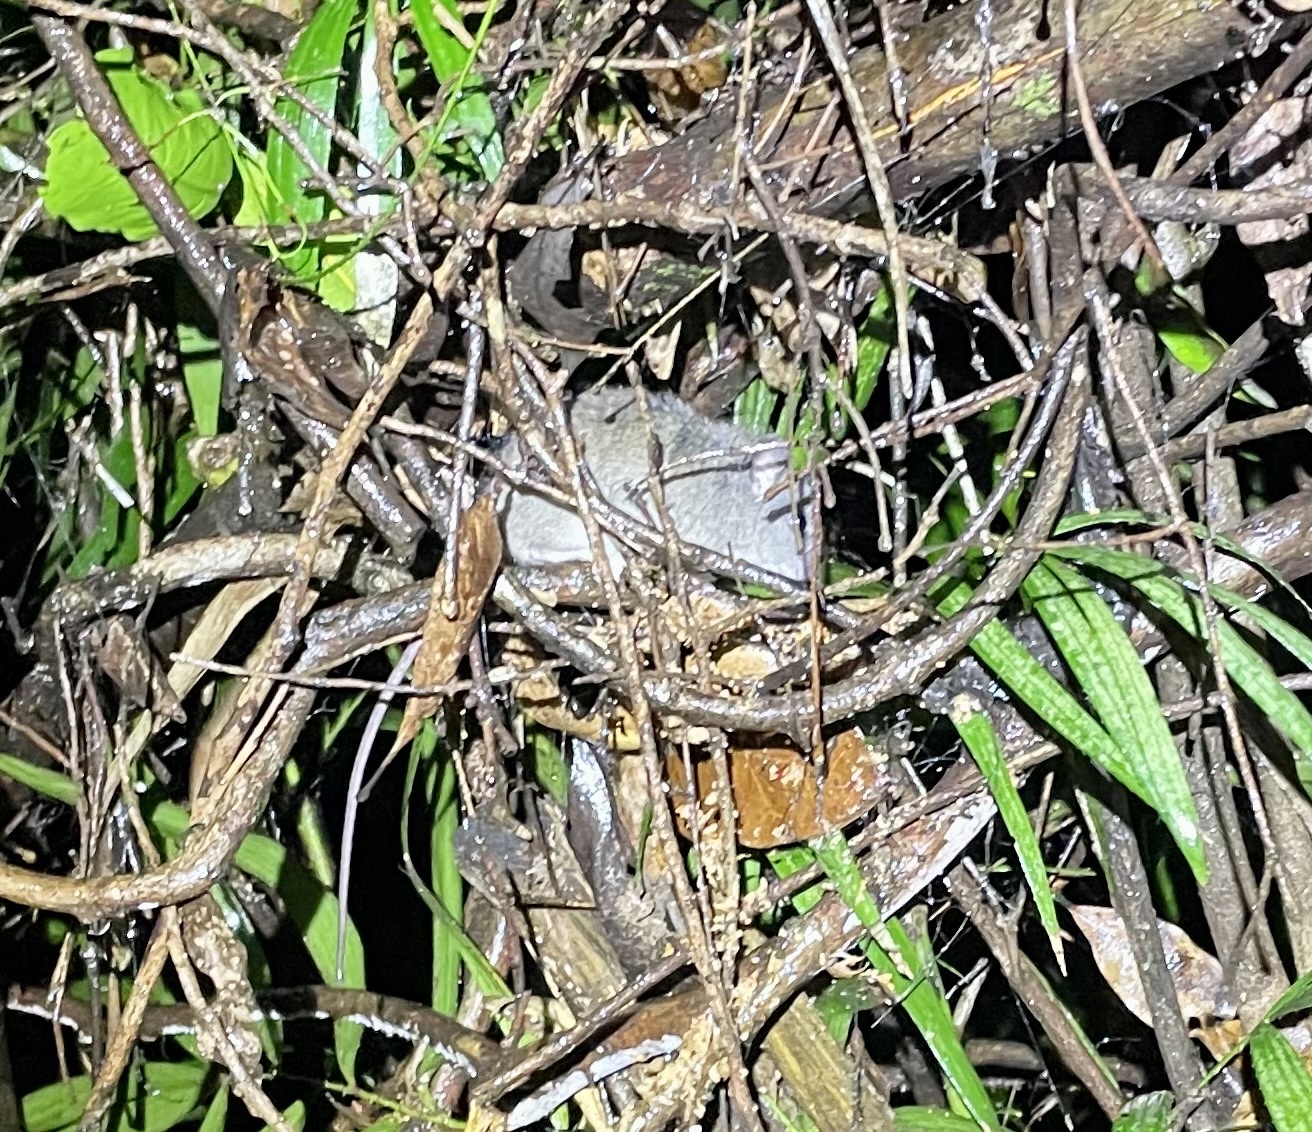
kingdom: Animalia
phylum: Chordata
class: Mammalia
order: Rodentia
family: Muridae
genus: Melomys
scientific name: Melomys cervinipes
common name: Fawn-footed melomys
